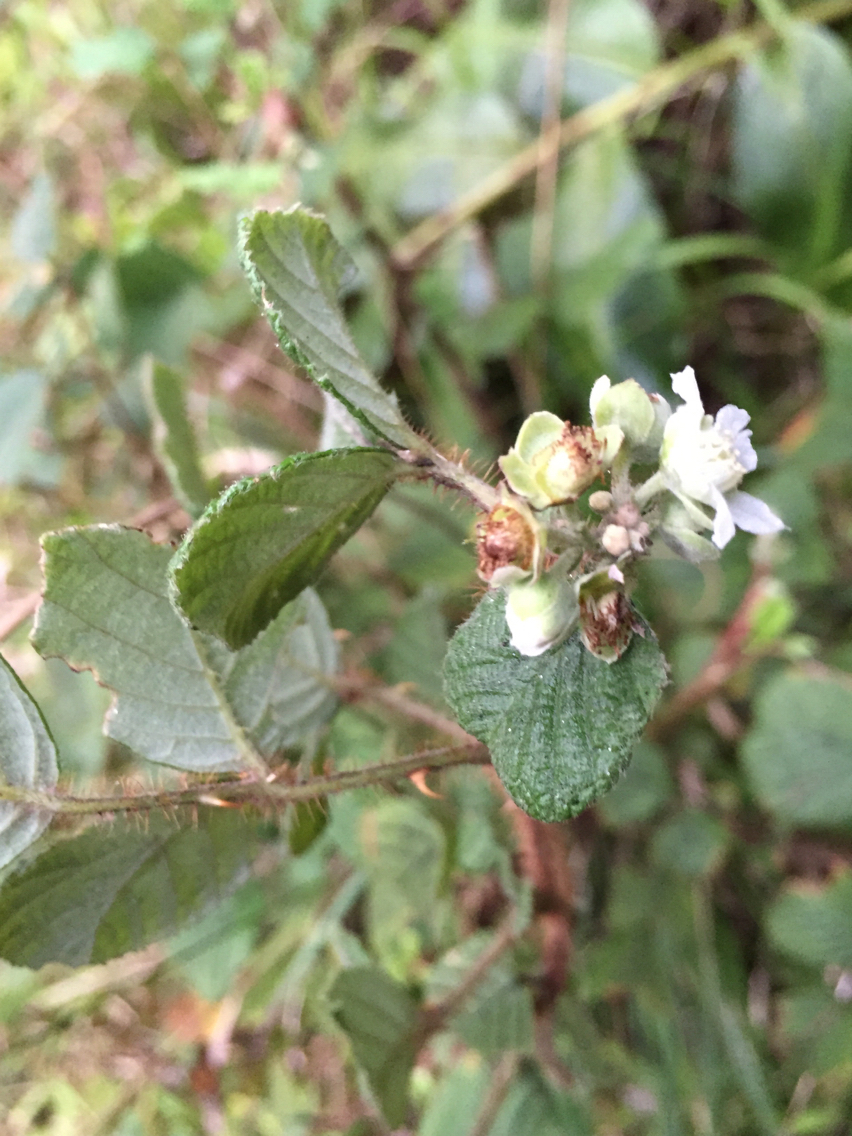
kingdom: Plantae
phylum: Tracheophyta
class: Magnoliopsida
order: Rosales
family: Rosaceae
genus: Rubus
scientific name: Rubus ellipticus
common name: Cheeseberry
